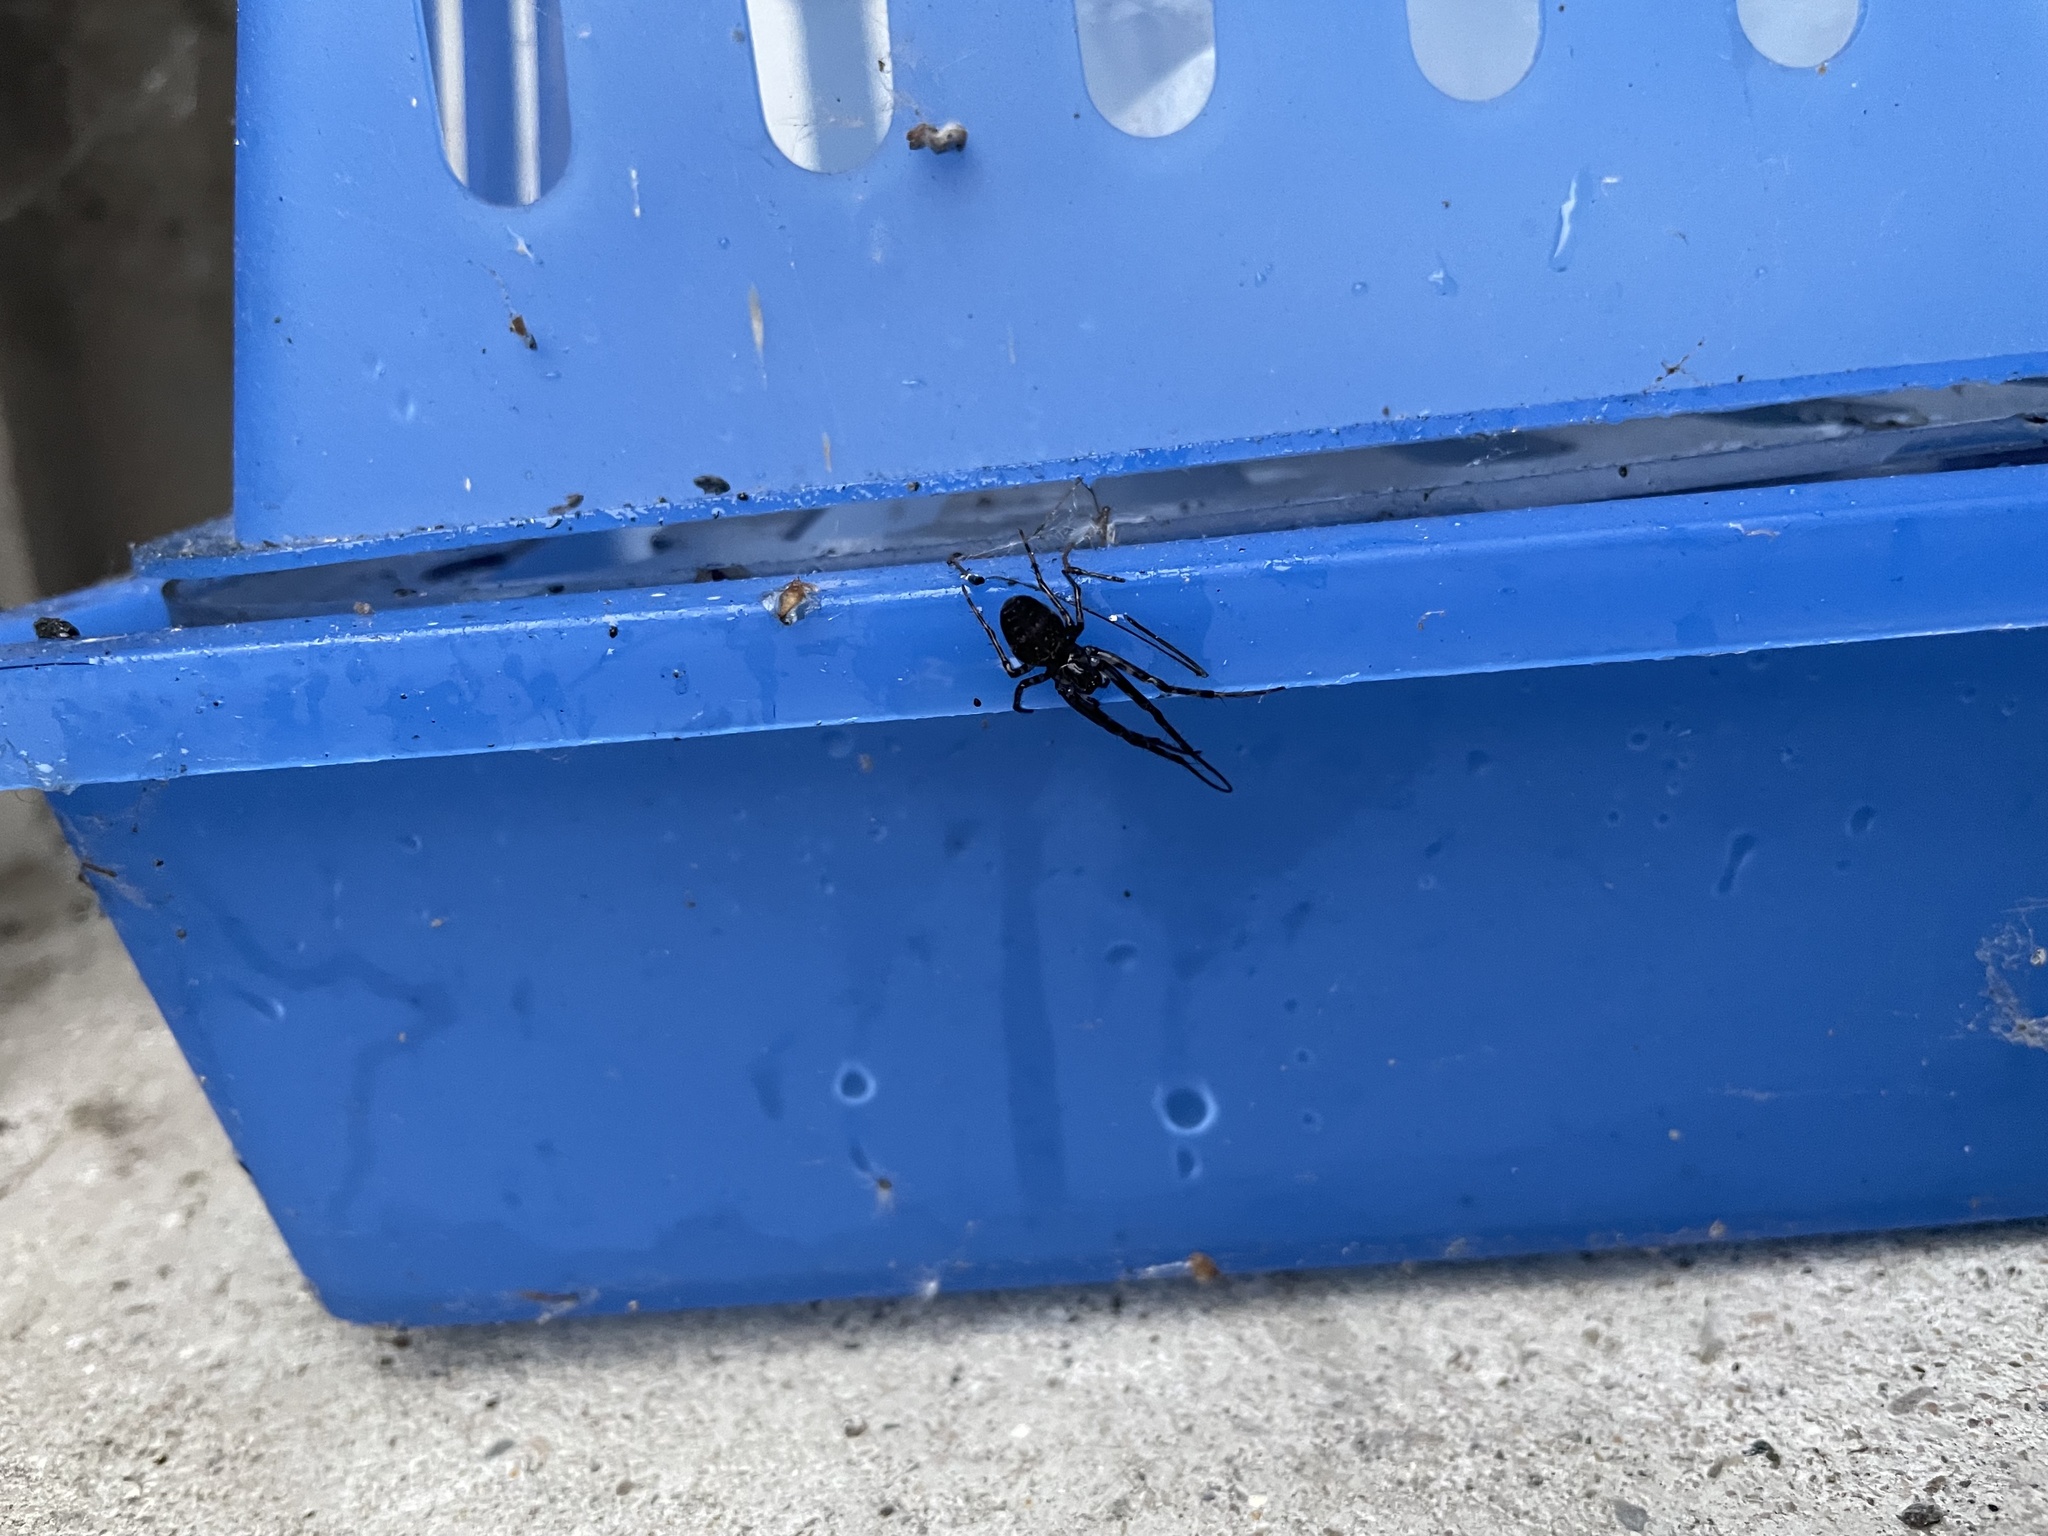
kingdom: Animalia
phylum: Arthropoda
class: Arachnida
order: Araneae
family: Tetragnathidae
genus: Metellina
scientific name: Metellina merianae
